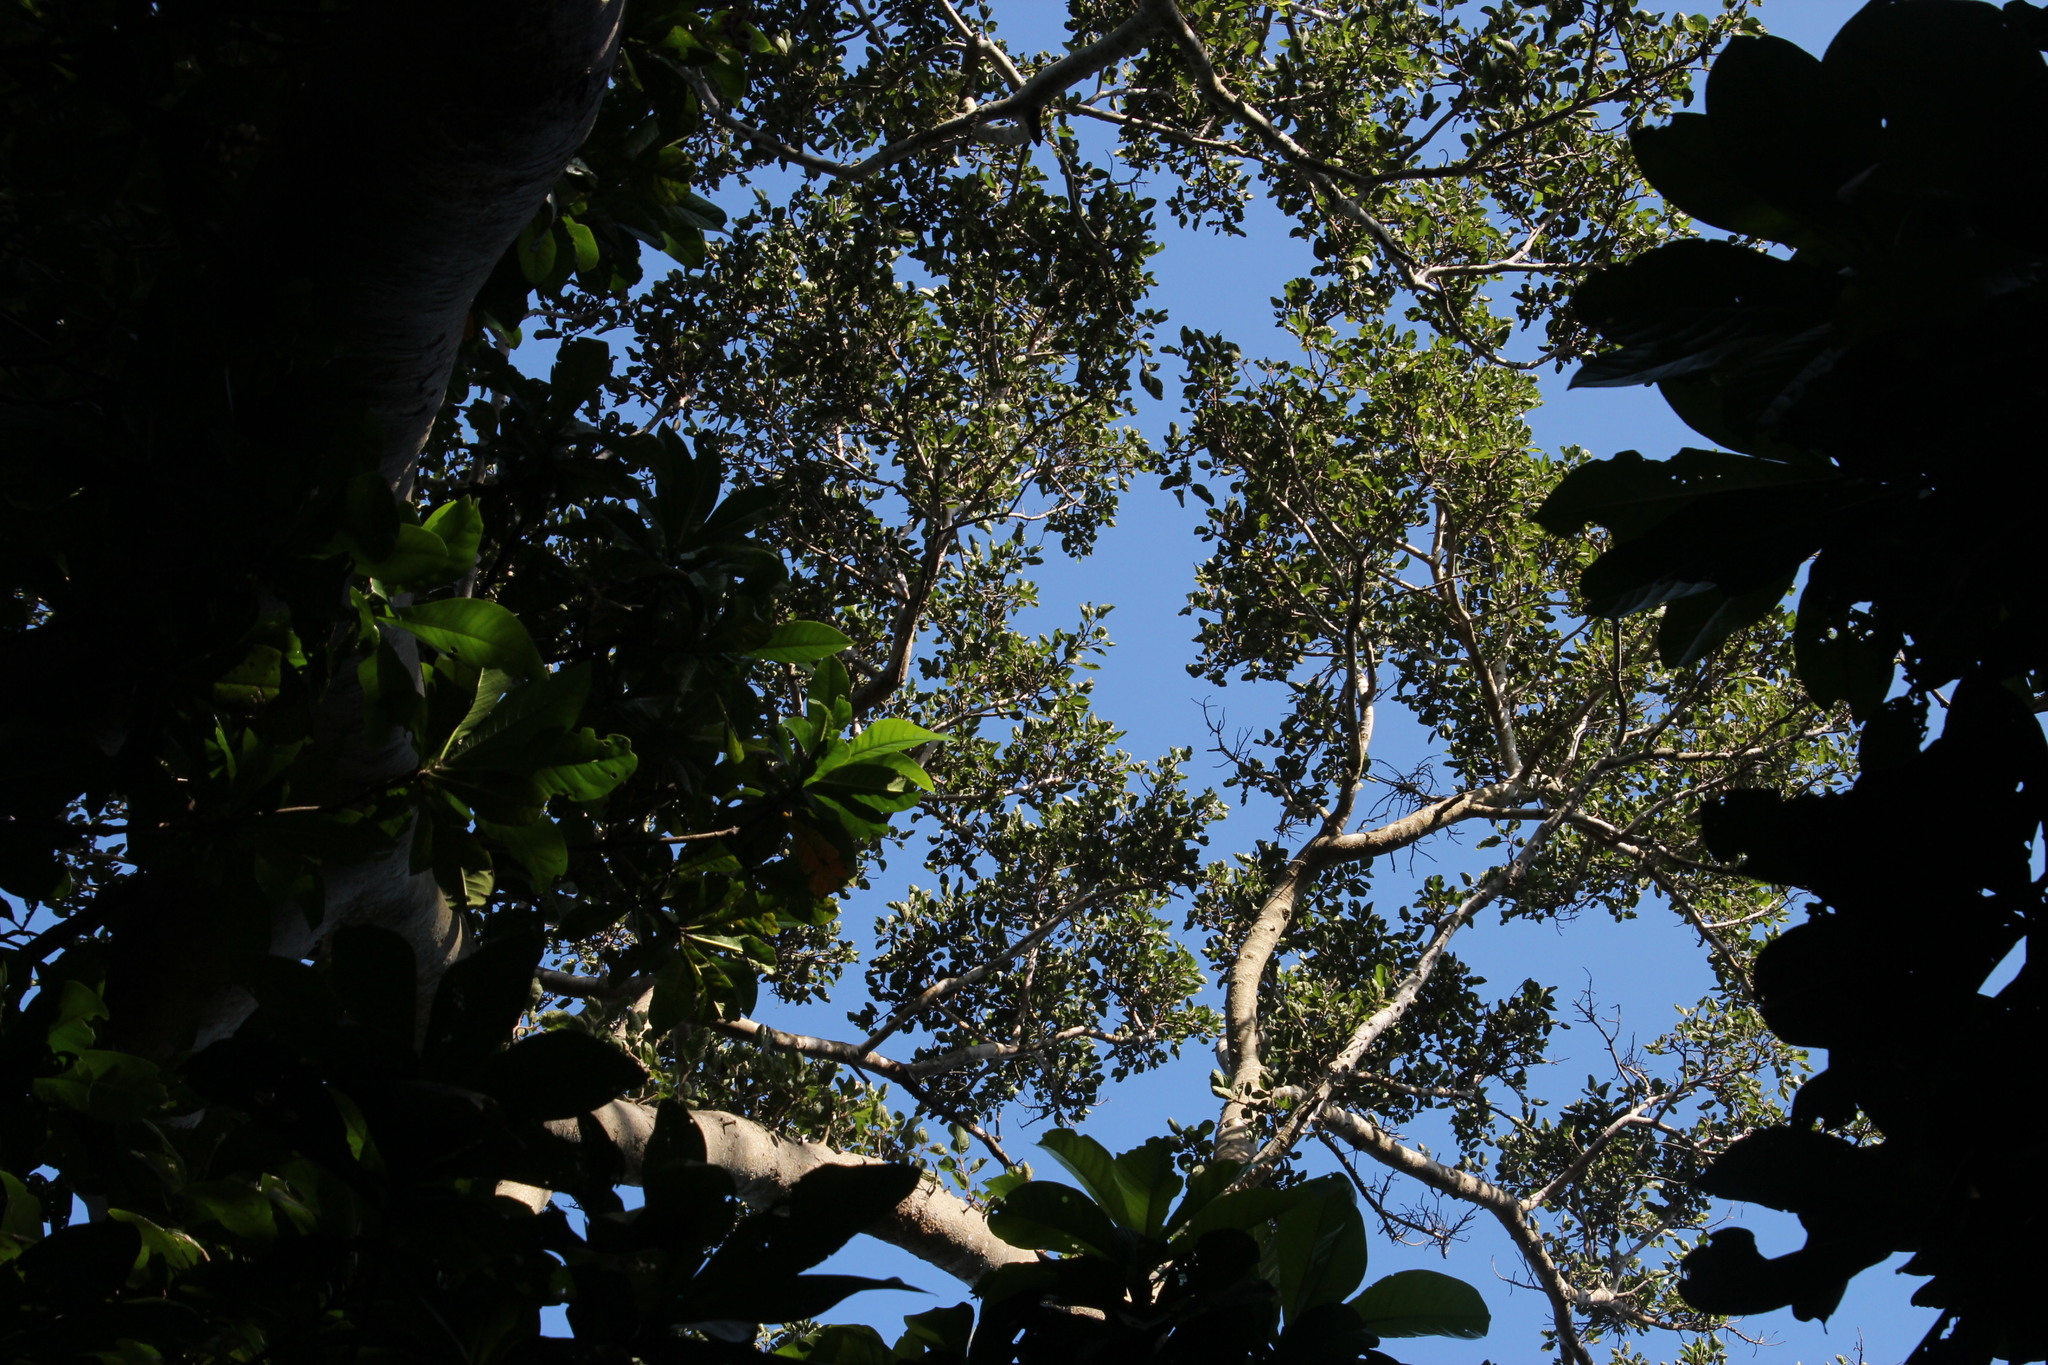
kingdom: Plantae
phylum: Tracheophyta
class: Magnoliopsida
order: Ericales
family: Lecythidaceae
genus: Barringtonia
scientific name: Barringtonia racemosa
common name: Brackwater mangrove
